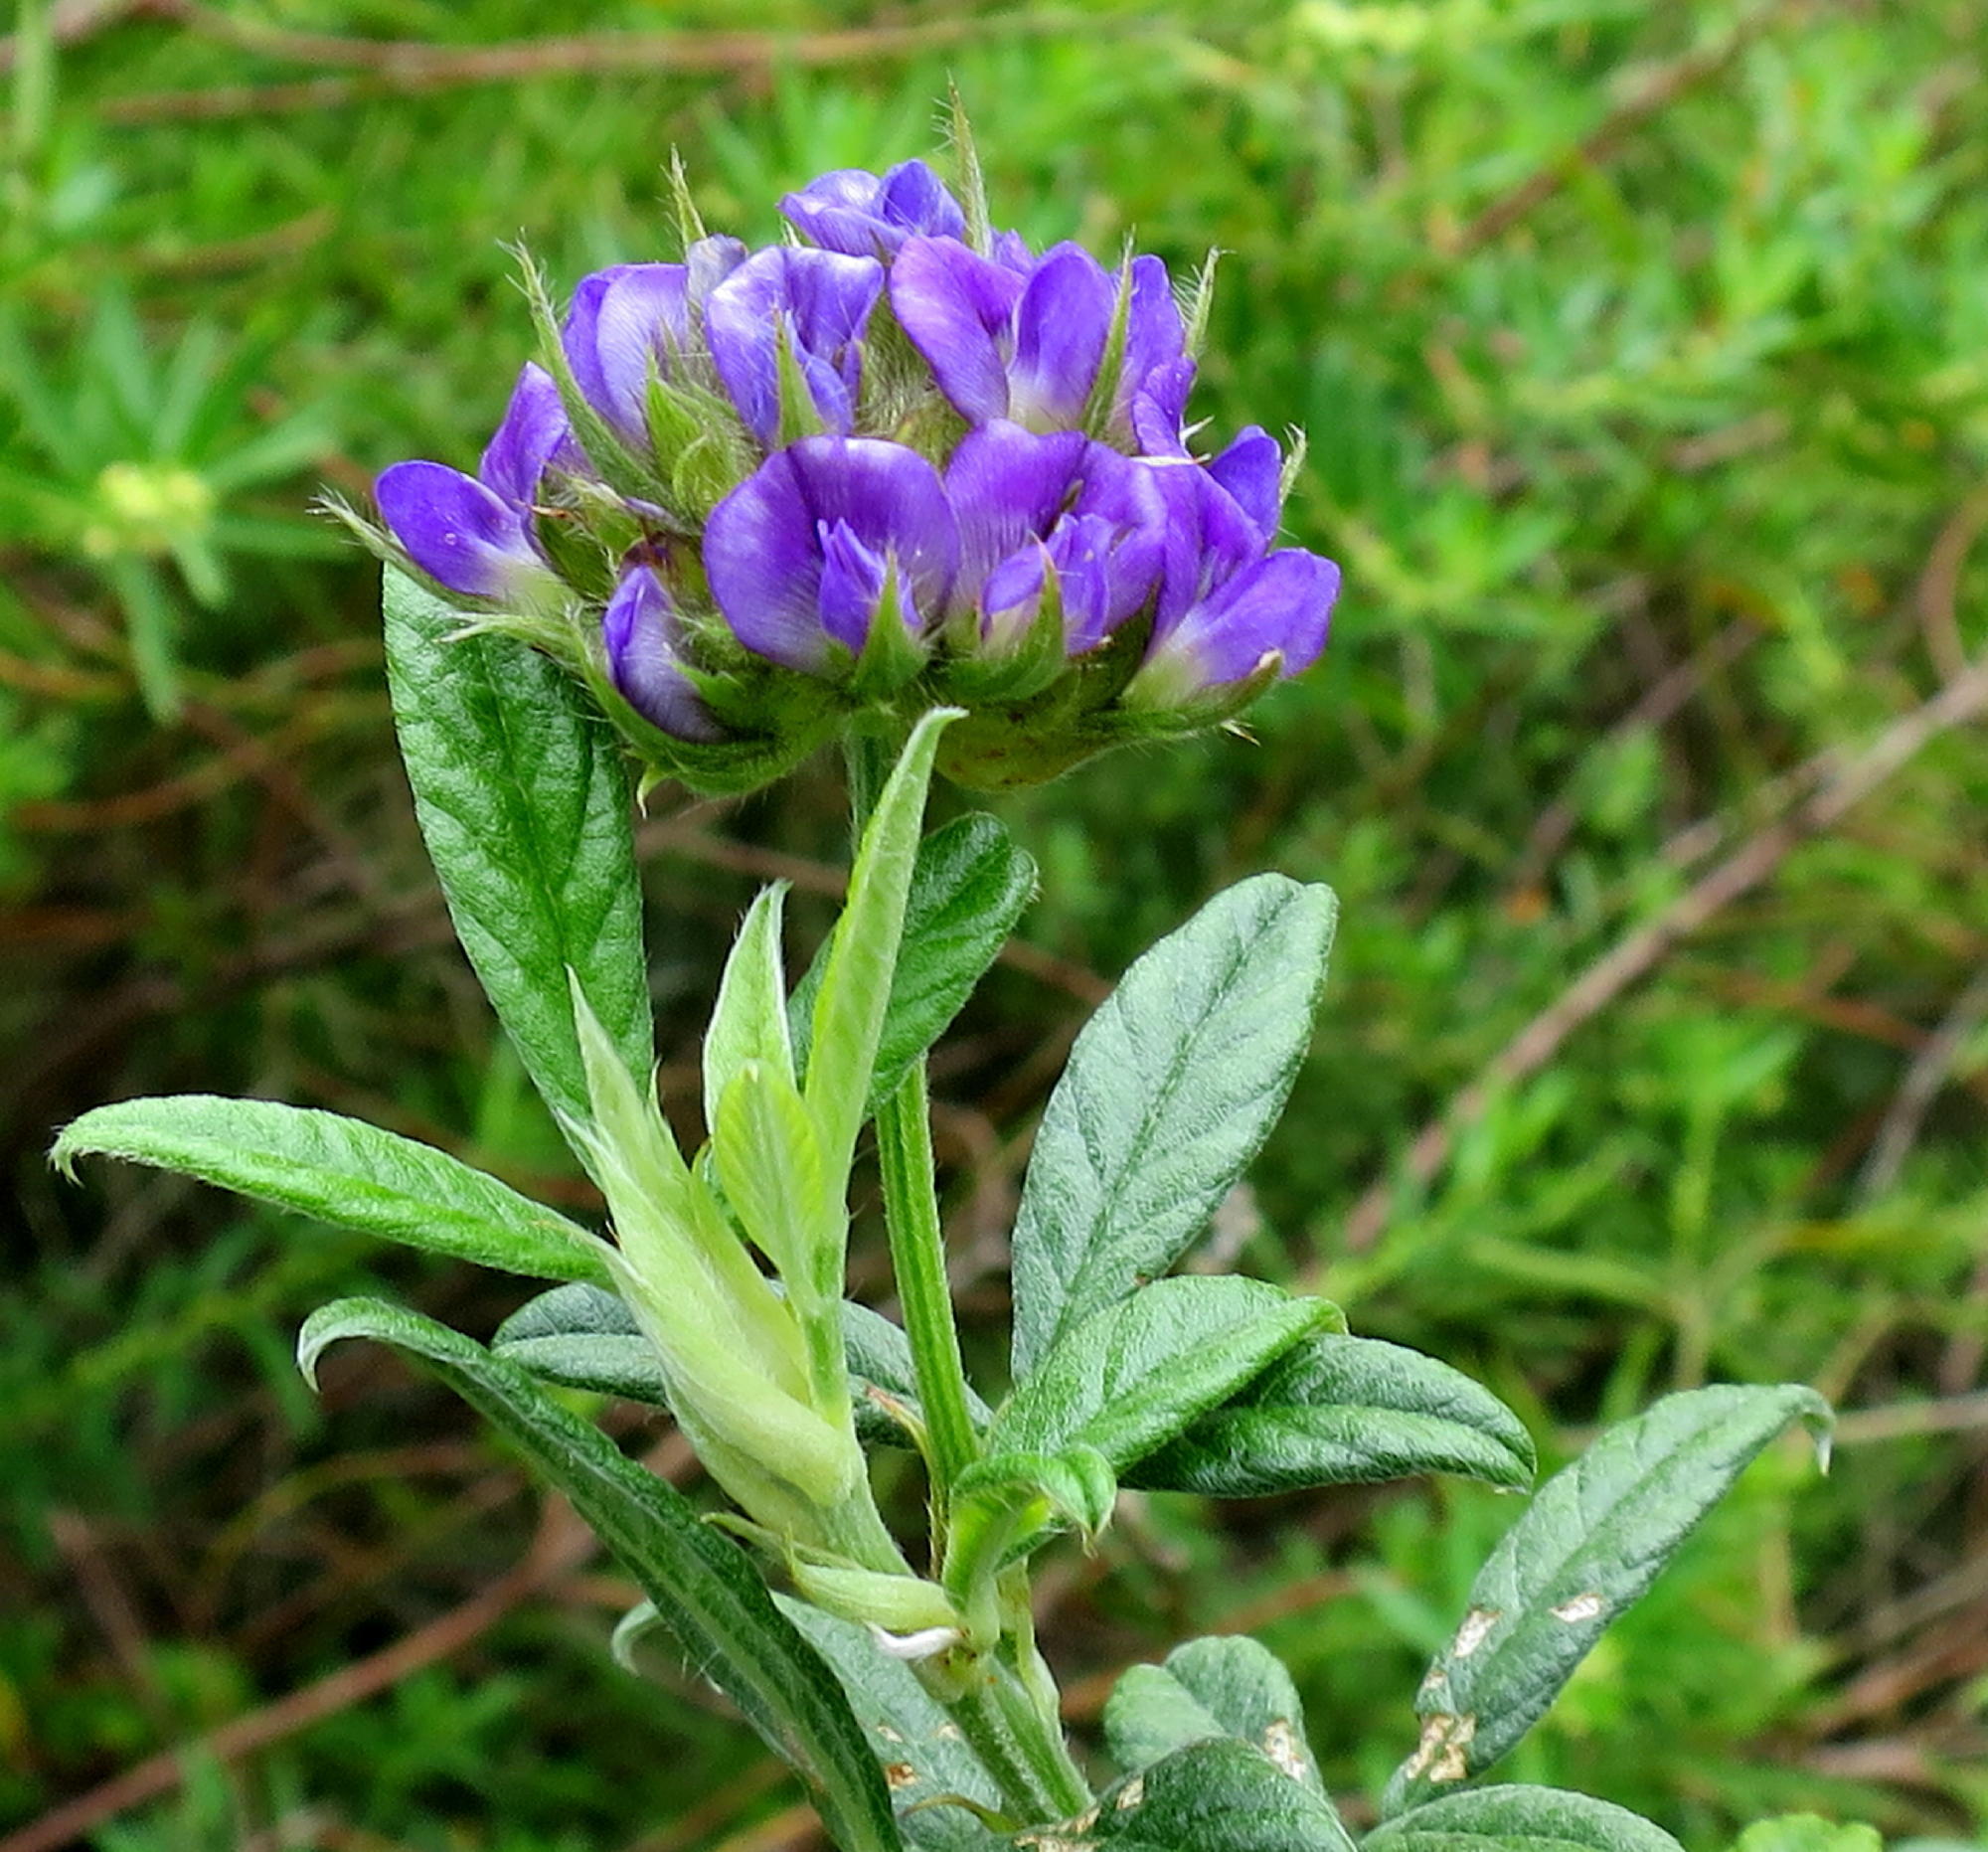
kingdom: Plantae
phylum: Tracheophyta
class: Magnoliopsida
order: Fabales
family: Fabaceae
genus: Psoralea
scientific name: Psoralea sericea
